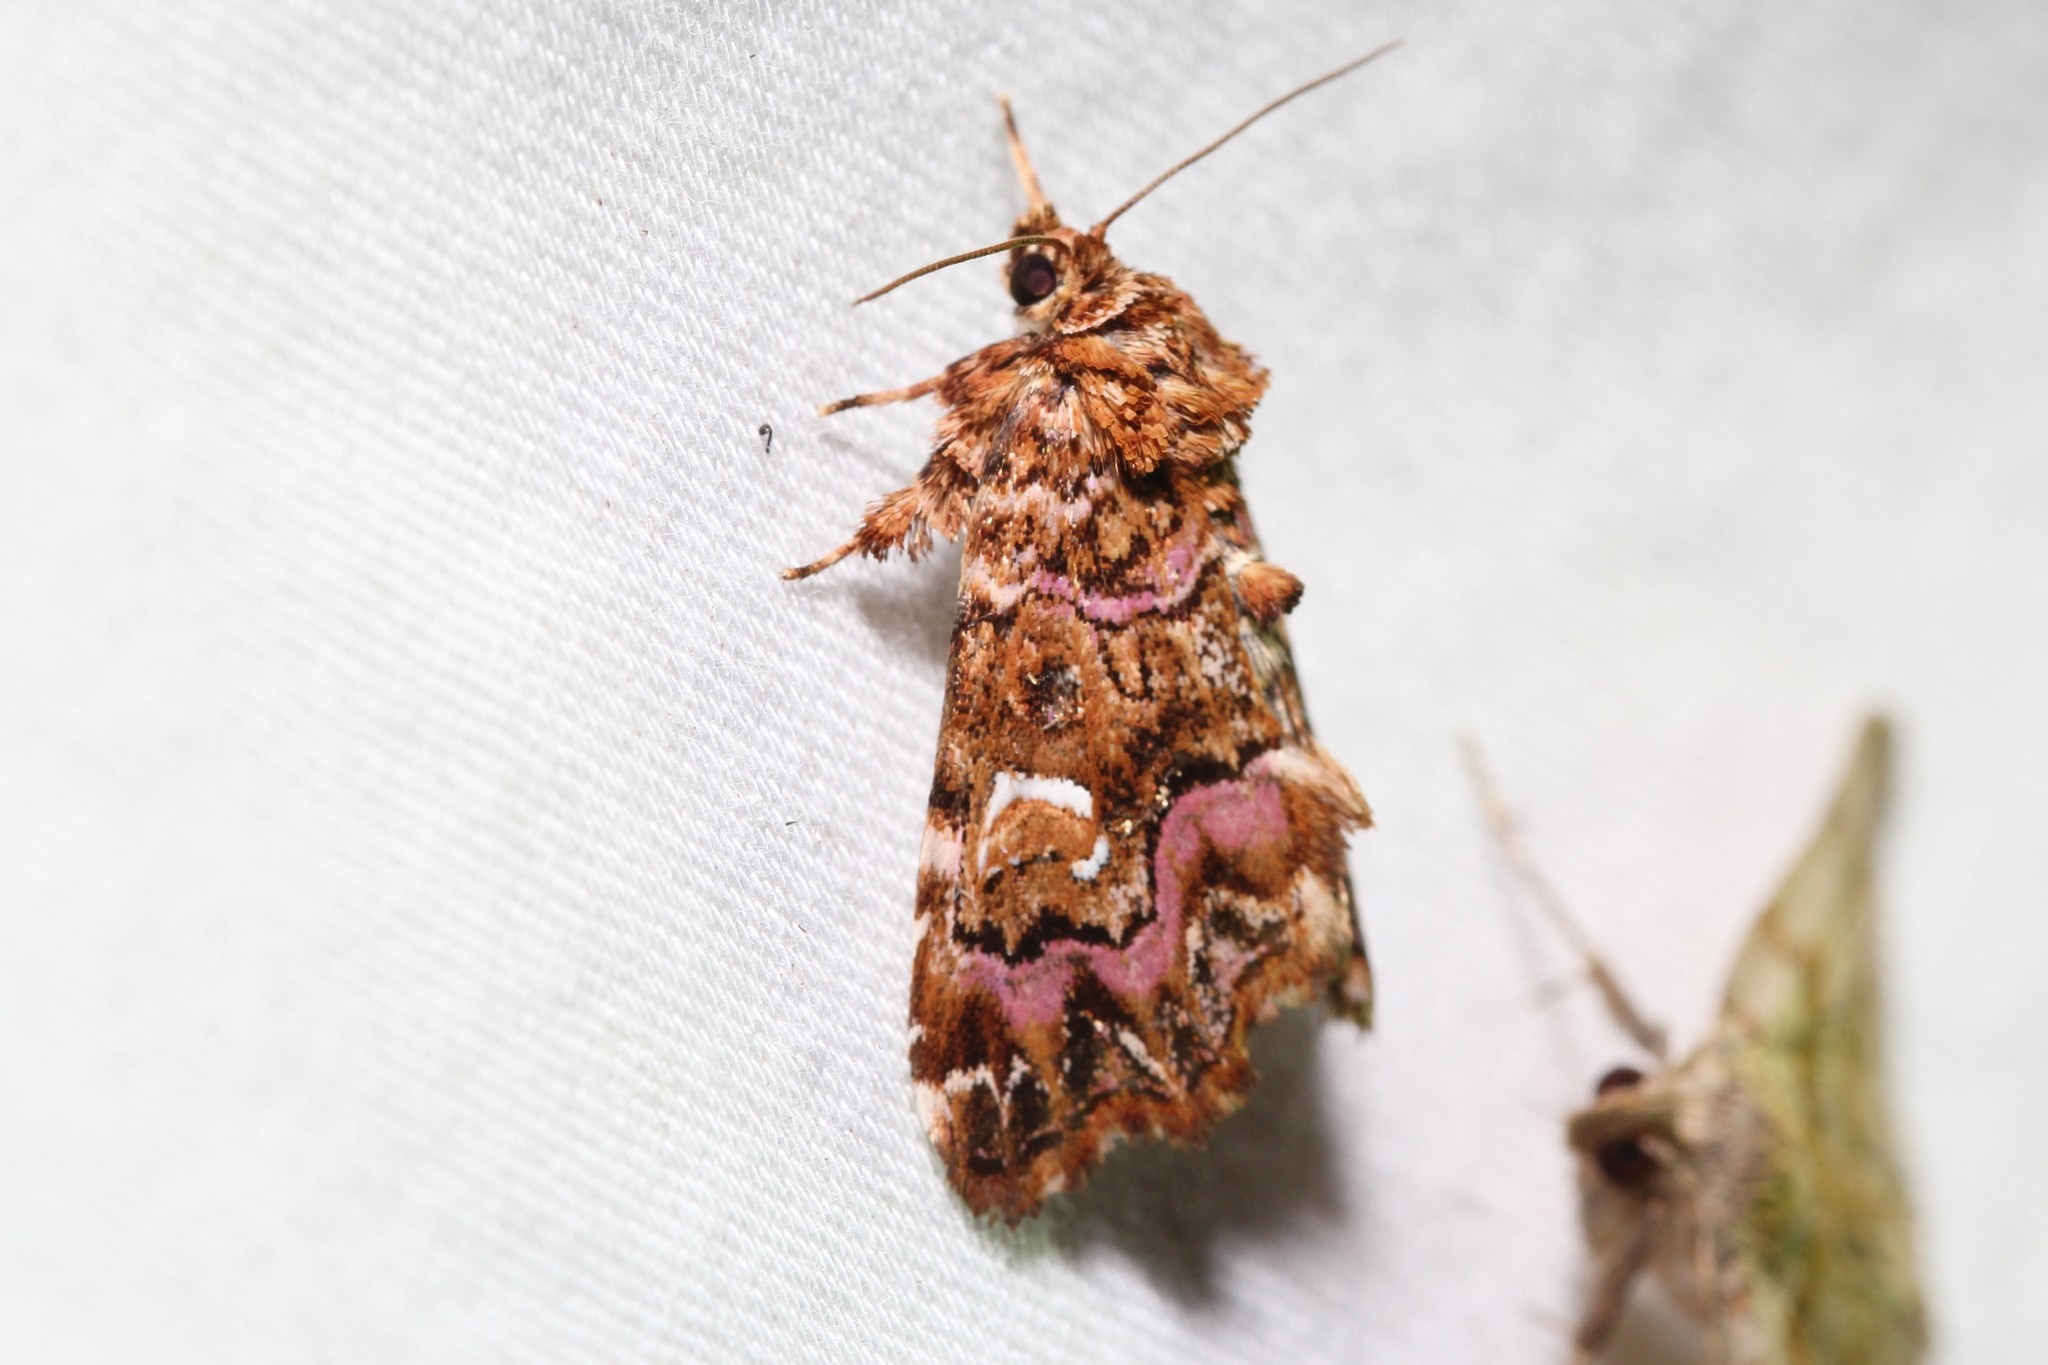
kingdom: Animalia
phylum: Arthropoda
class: Insecta
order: Lepidoptera
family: Noctuidae
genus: Callopistria
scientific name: Callopistria mollissima
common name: Pink-shaded fern moth
